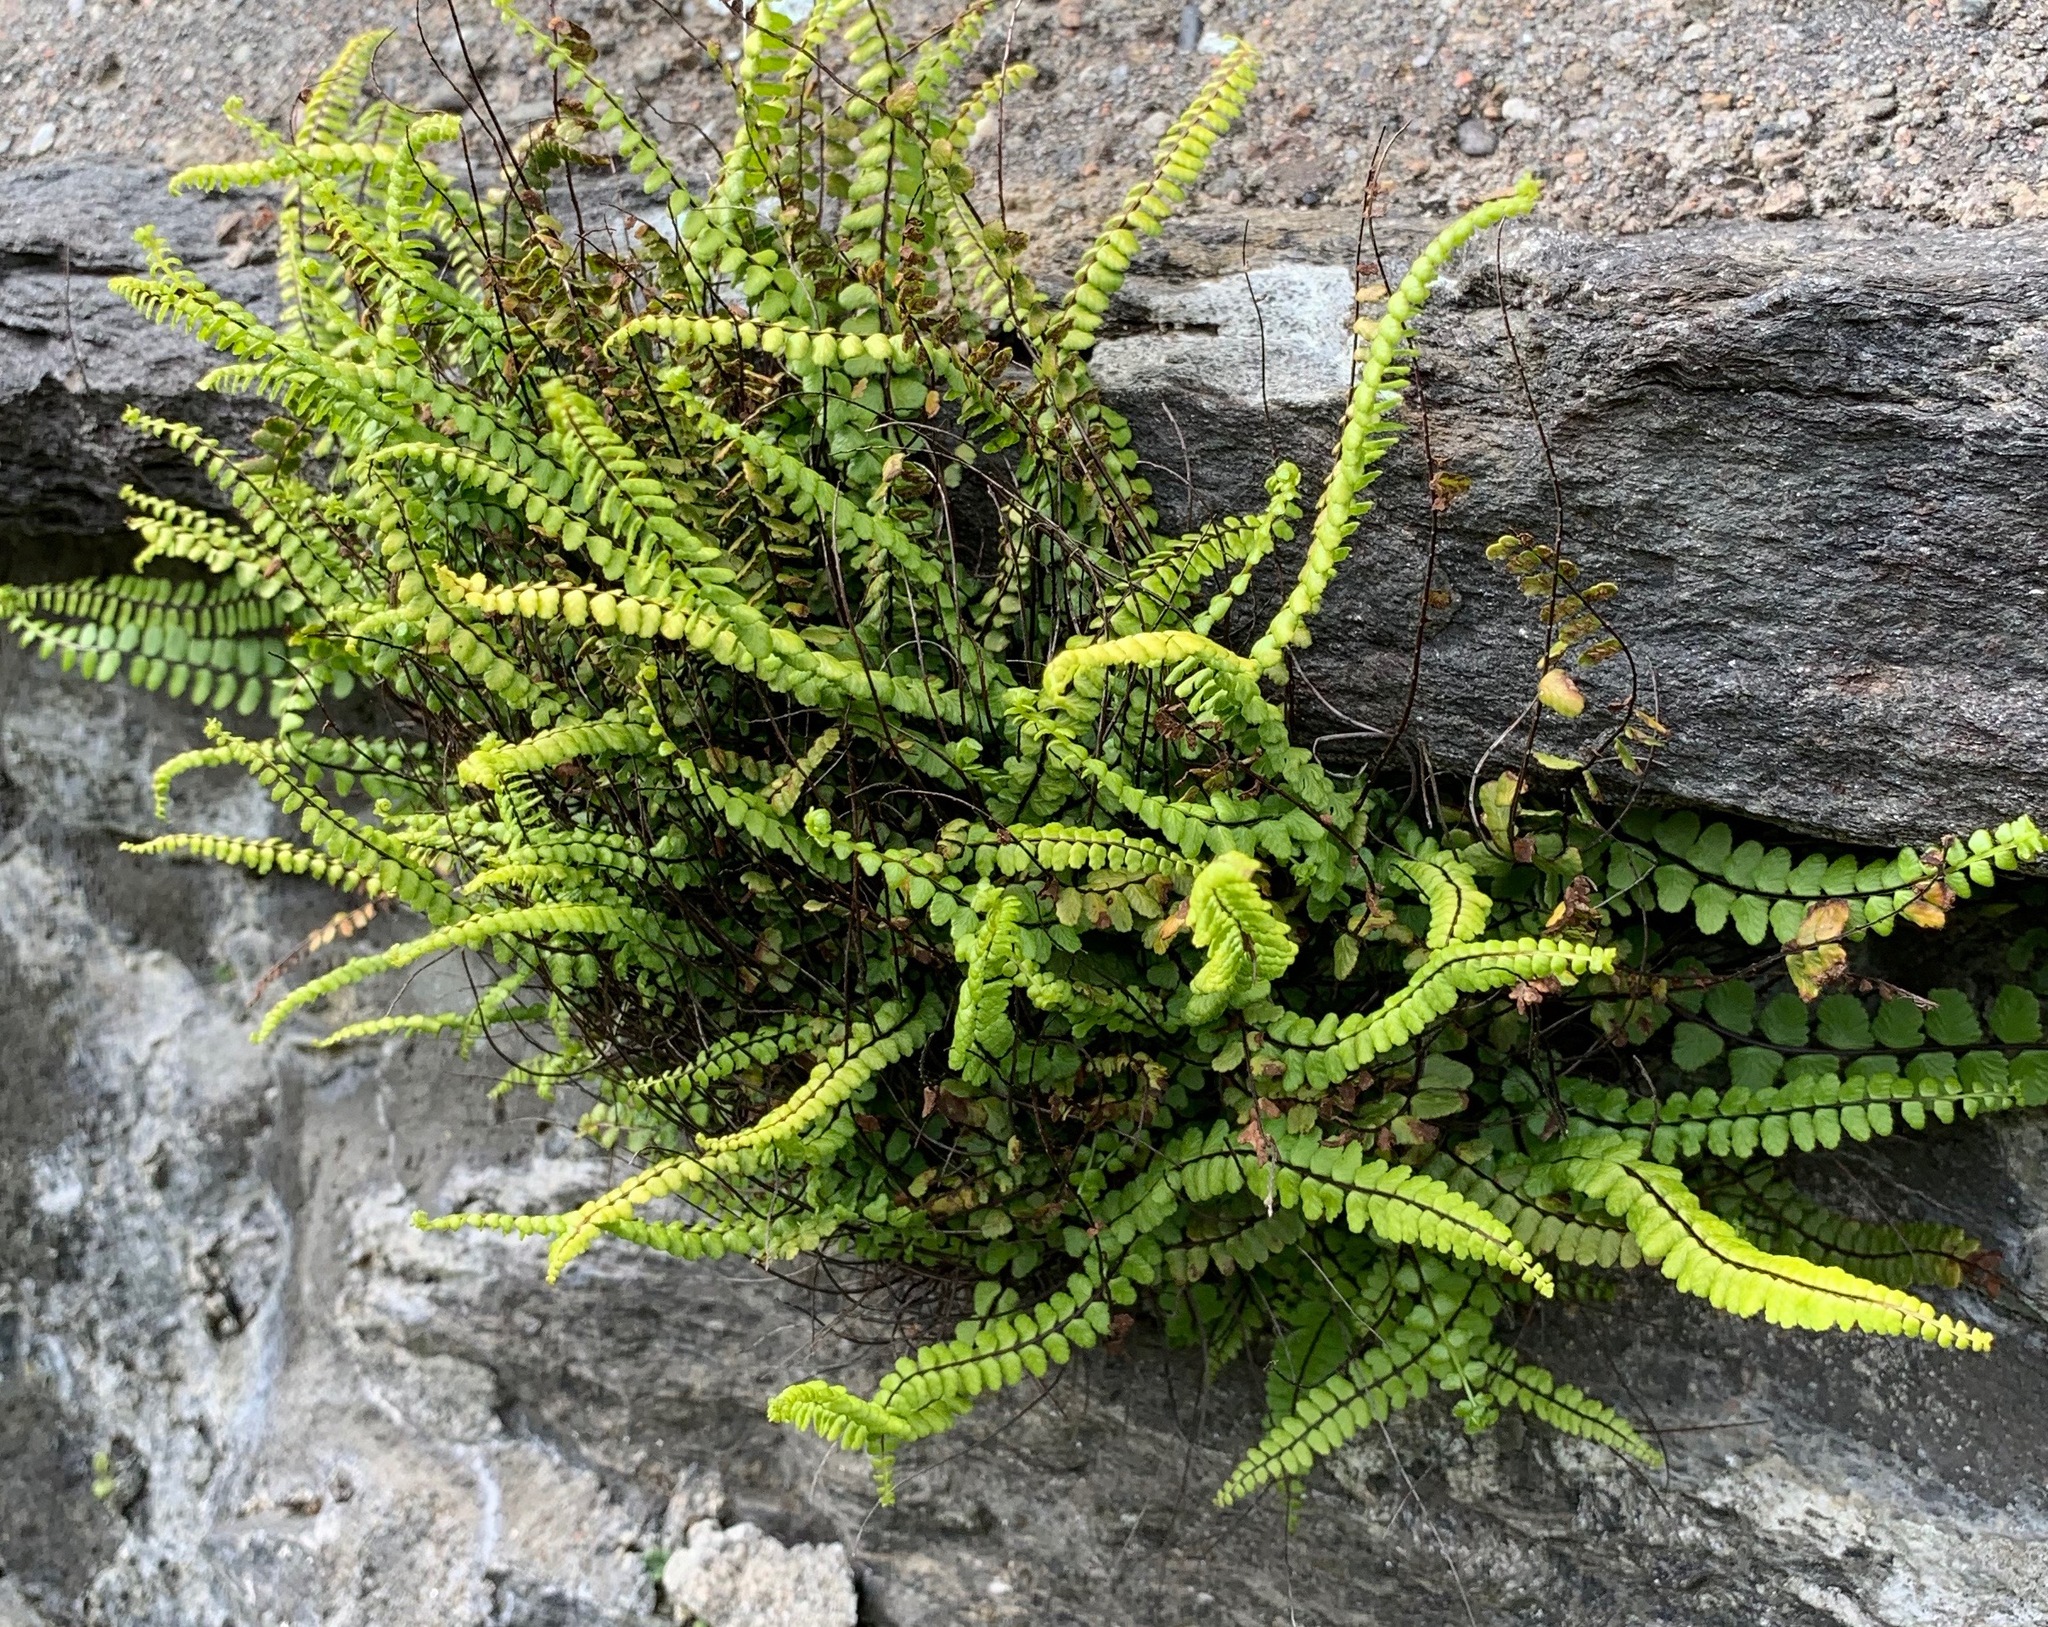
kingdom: Plantae
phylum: Tracheophyta
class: Polypodiopsida
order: Polypodiales
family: Aspleniaceae
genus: Asplenium
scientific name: Asplenium trichomanes
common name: Maidenhair spleenwort
